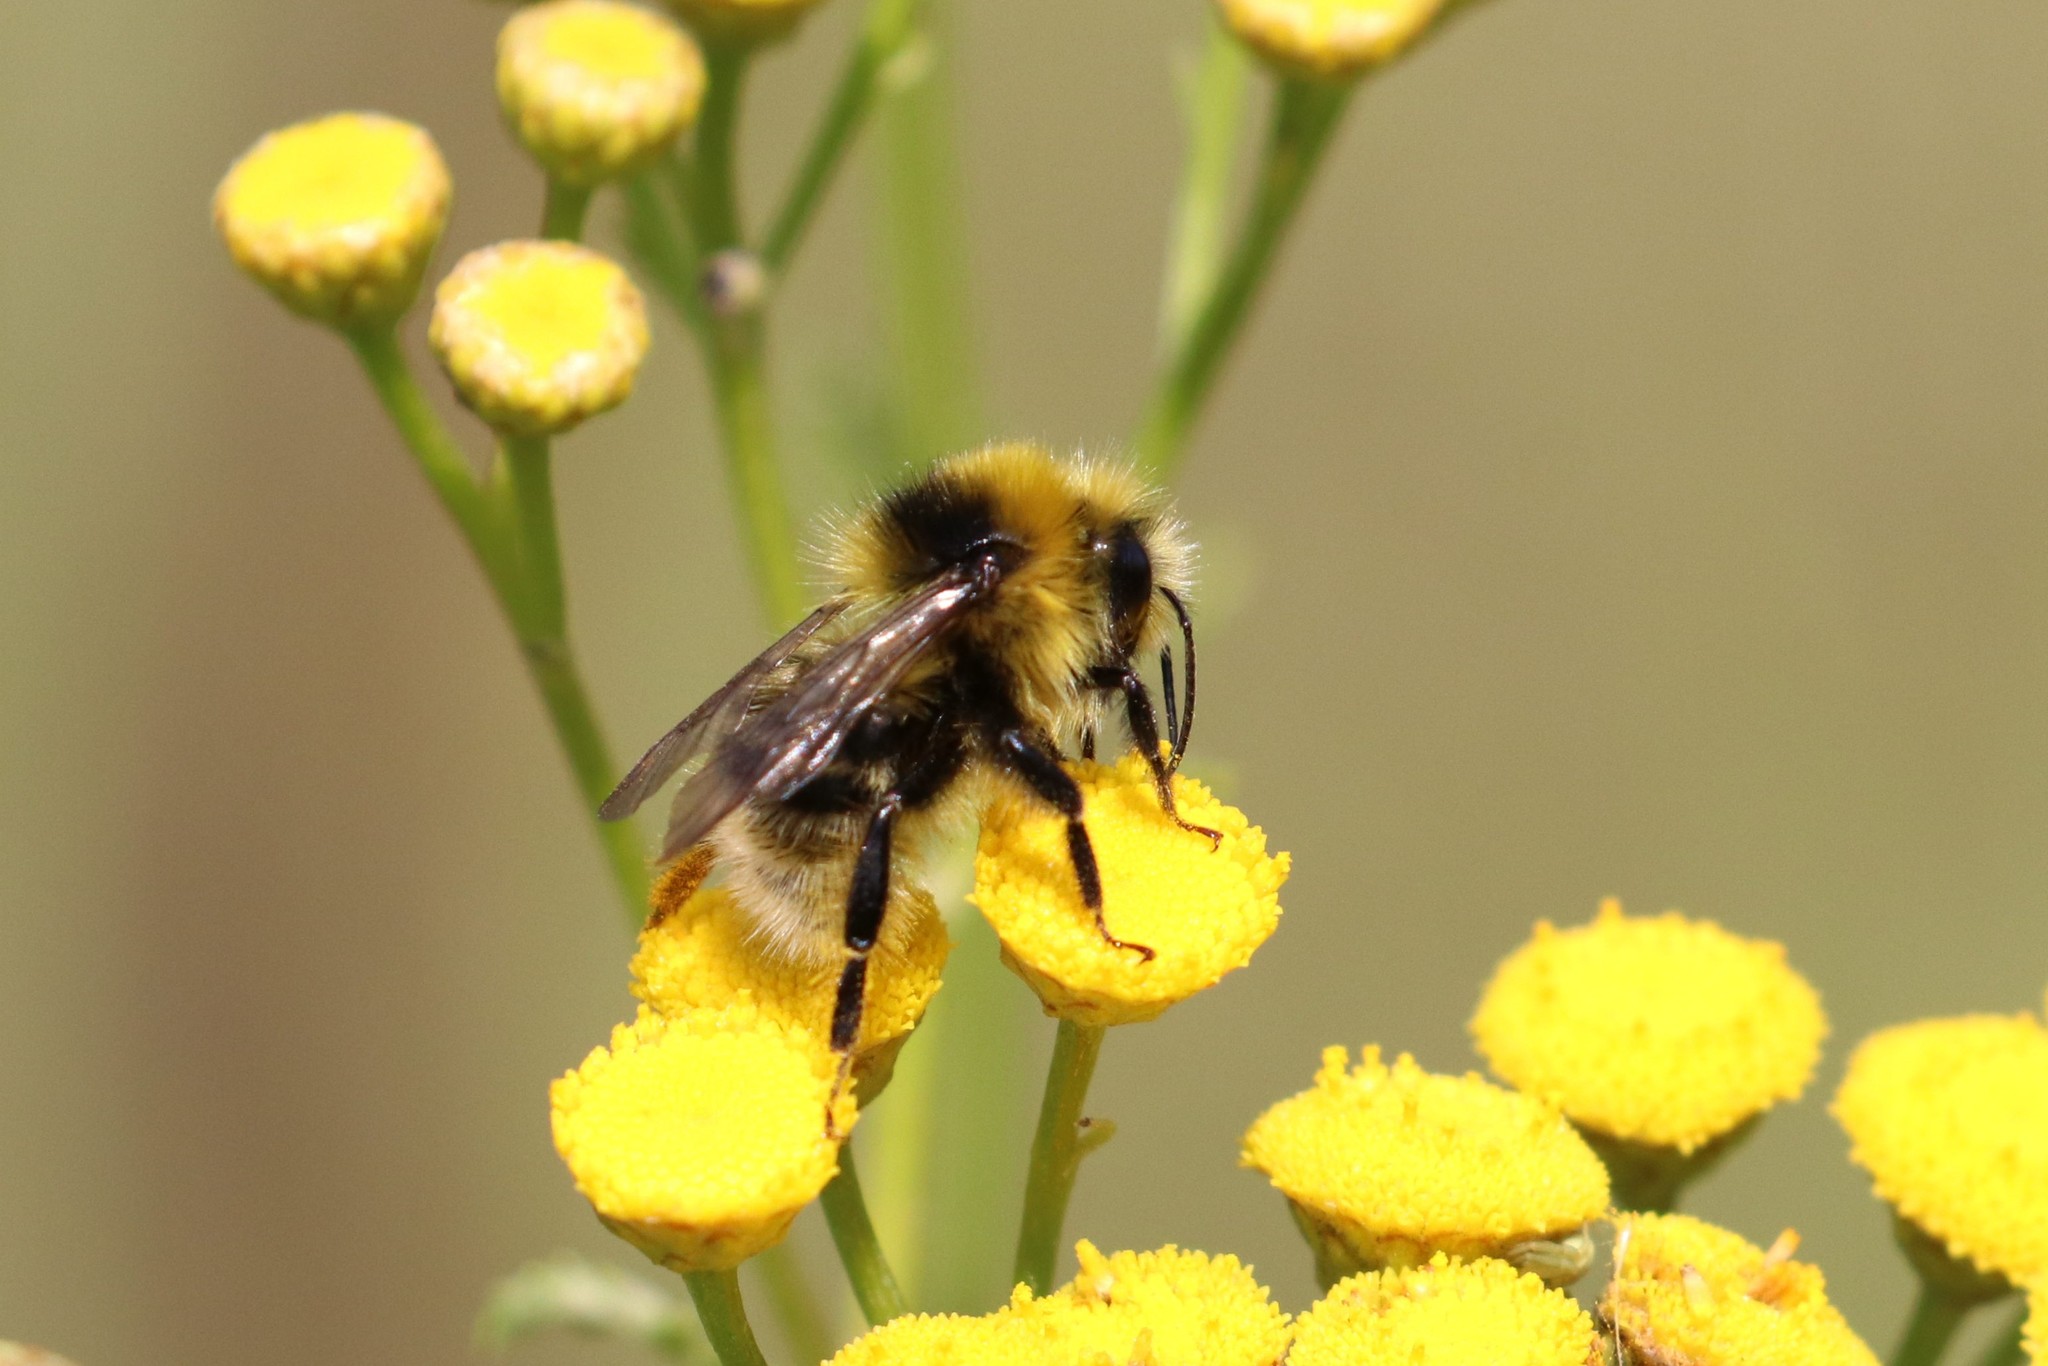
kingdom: Animalia
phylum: Arthropoda
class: Insecta
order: Hymenoptera
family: Apidae
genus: Bombus
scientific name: Bombus semenoviellus
